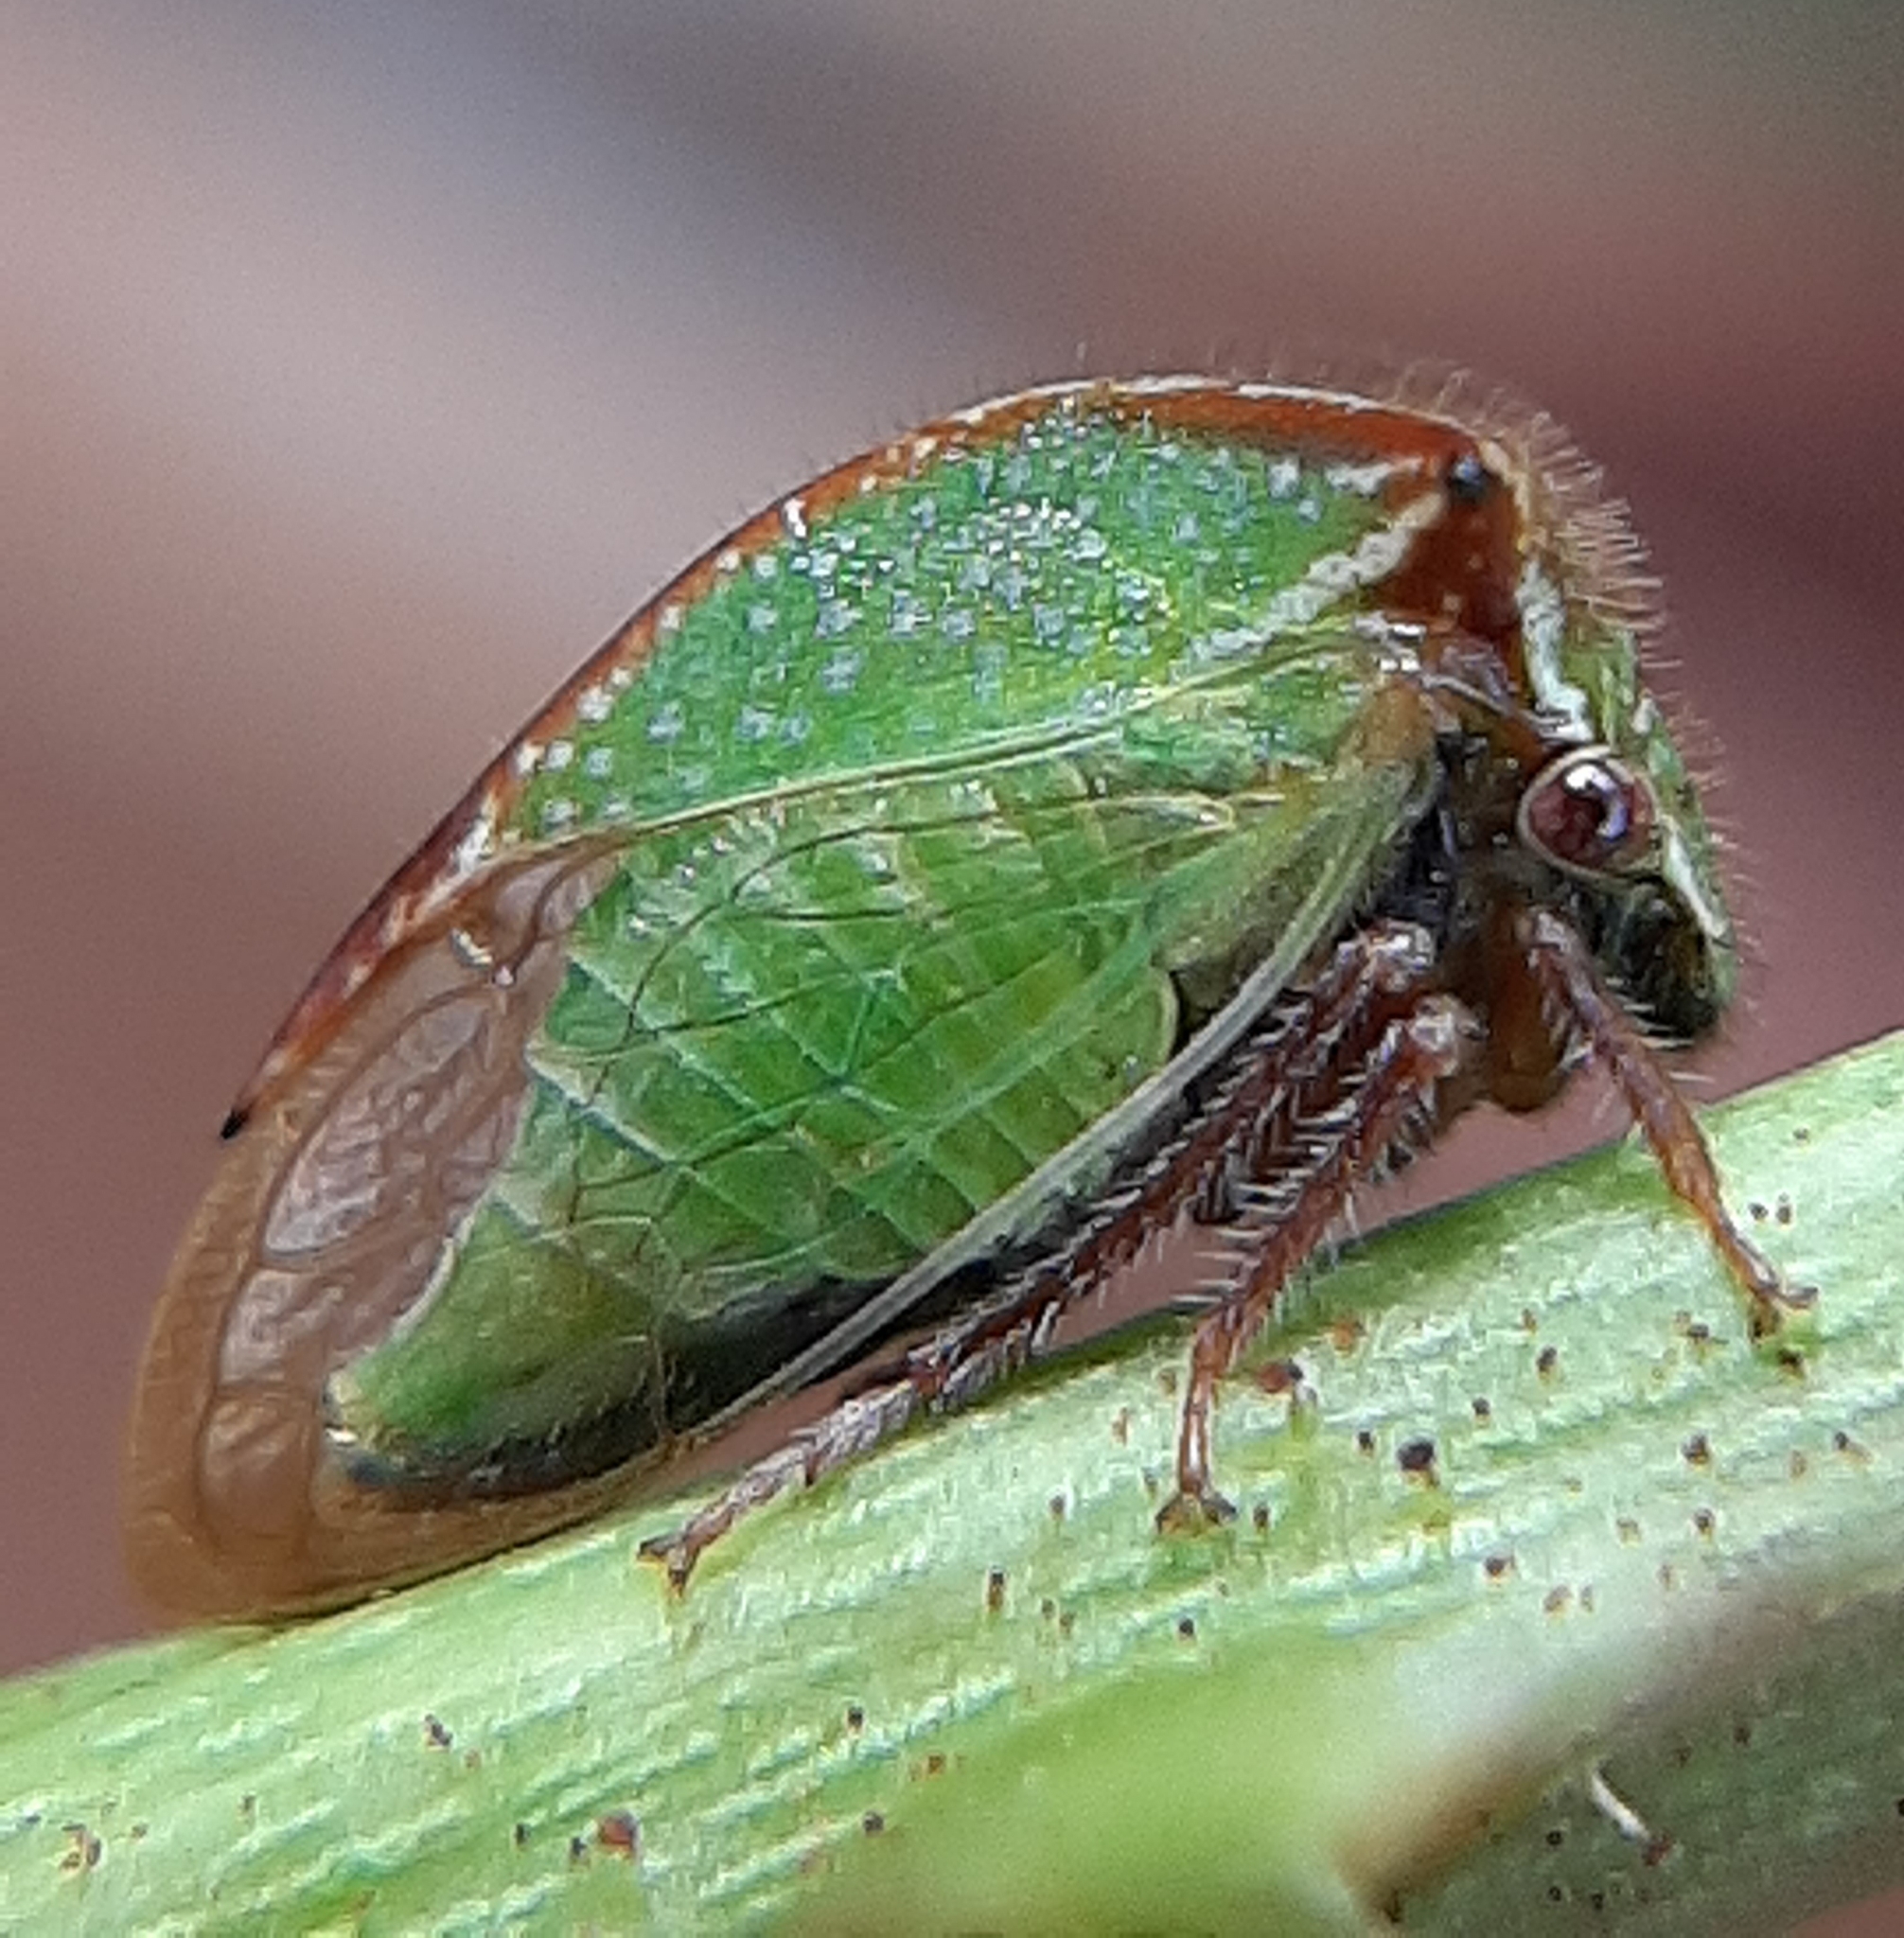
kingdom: Animalia
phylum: Arthropoda
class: Insecta
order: Hemiptera
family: Membracidae
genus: Stictocephala
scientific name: Stictocephala basalis
